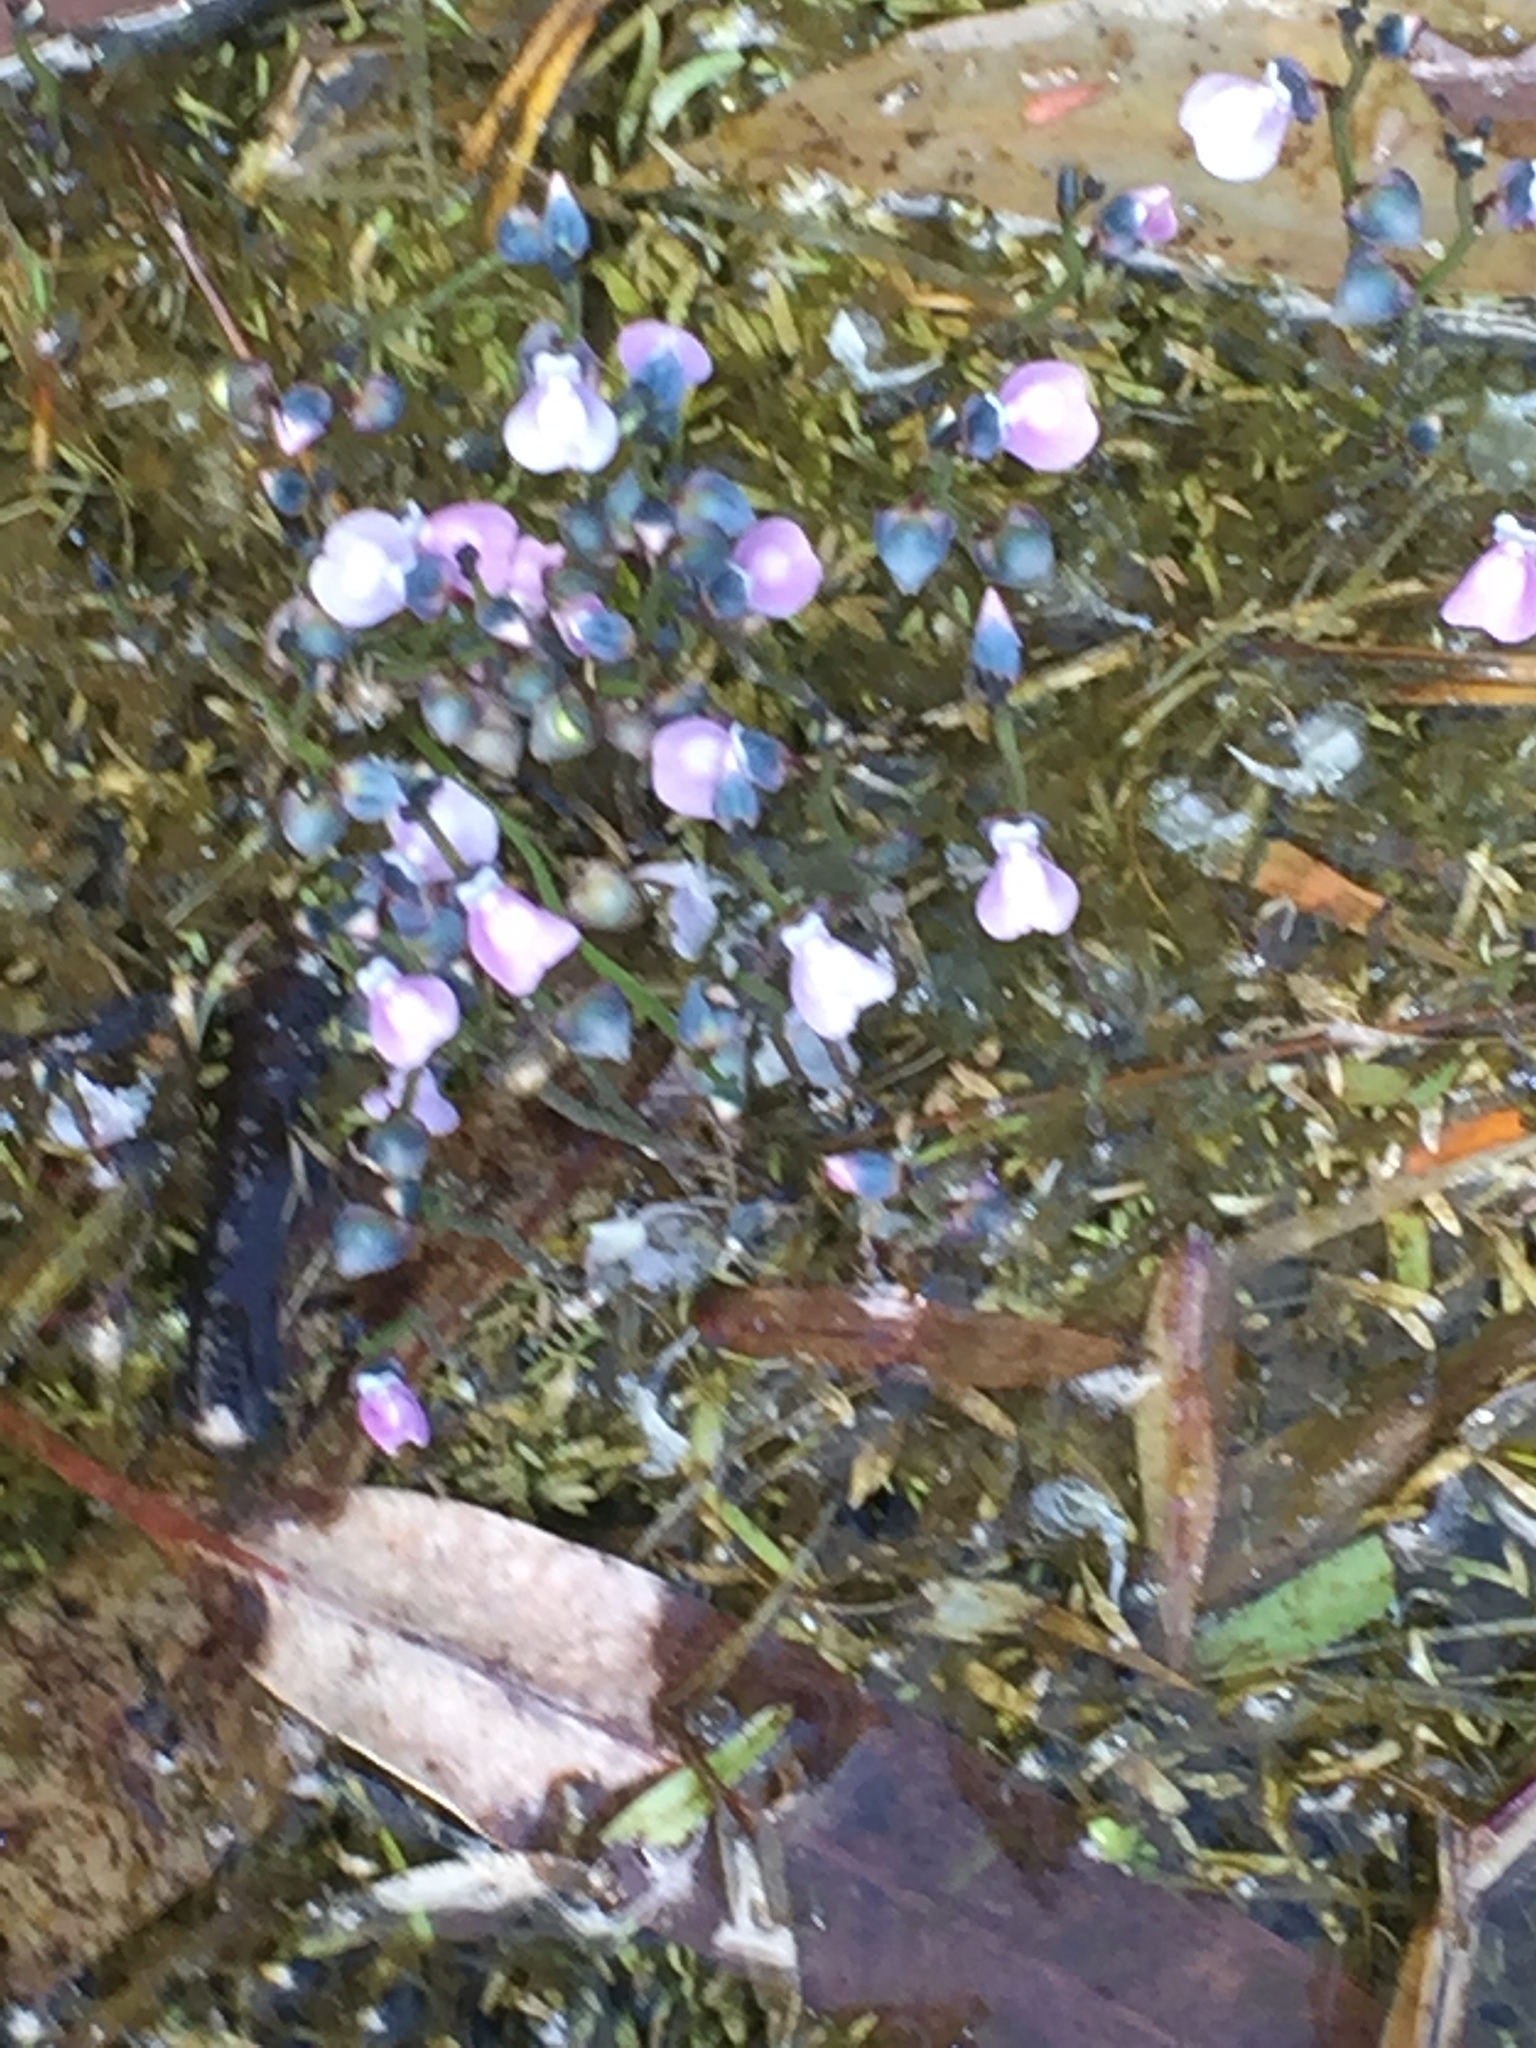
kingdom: Plantae
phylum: Tracheophyta
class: Magnoliopsida
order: Lamiales
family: Lentibulariaceae
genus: Utricularia
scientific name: Utricularia uliginosa
